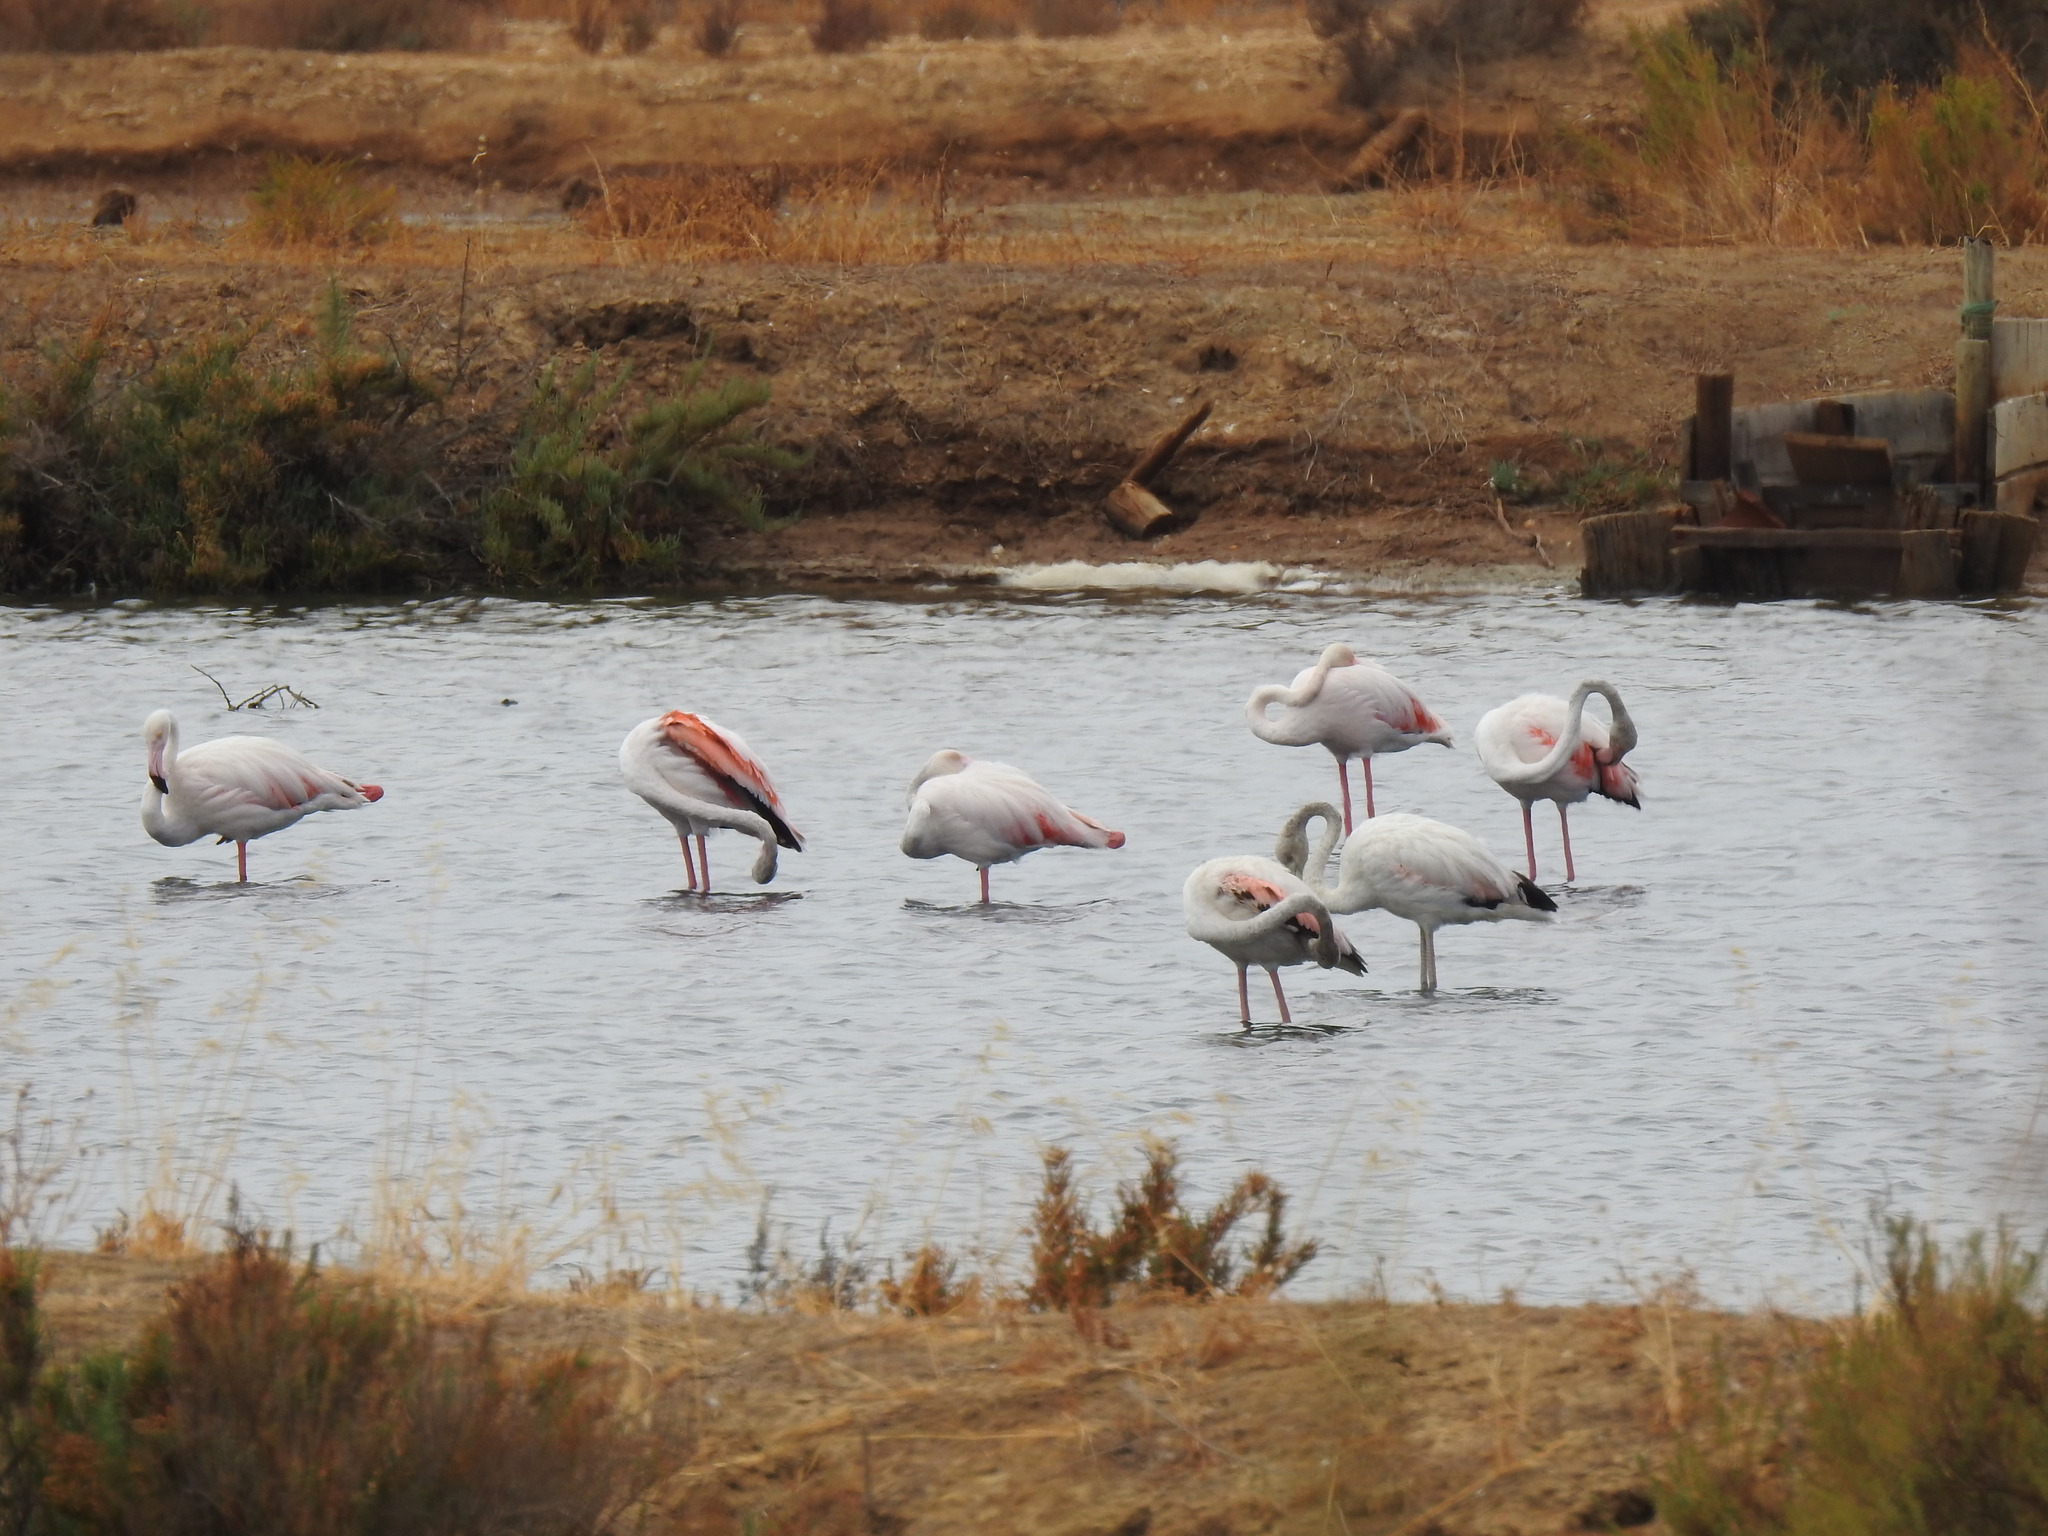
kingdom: Animalia
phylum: Chordata
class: Aves
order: Phoenicopteriformes
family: Phoenicopteridae
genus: Phoenicopterus
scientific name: Phoenicopterus roseus
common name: Greater flamingo
